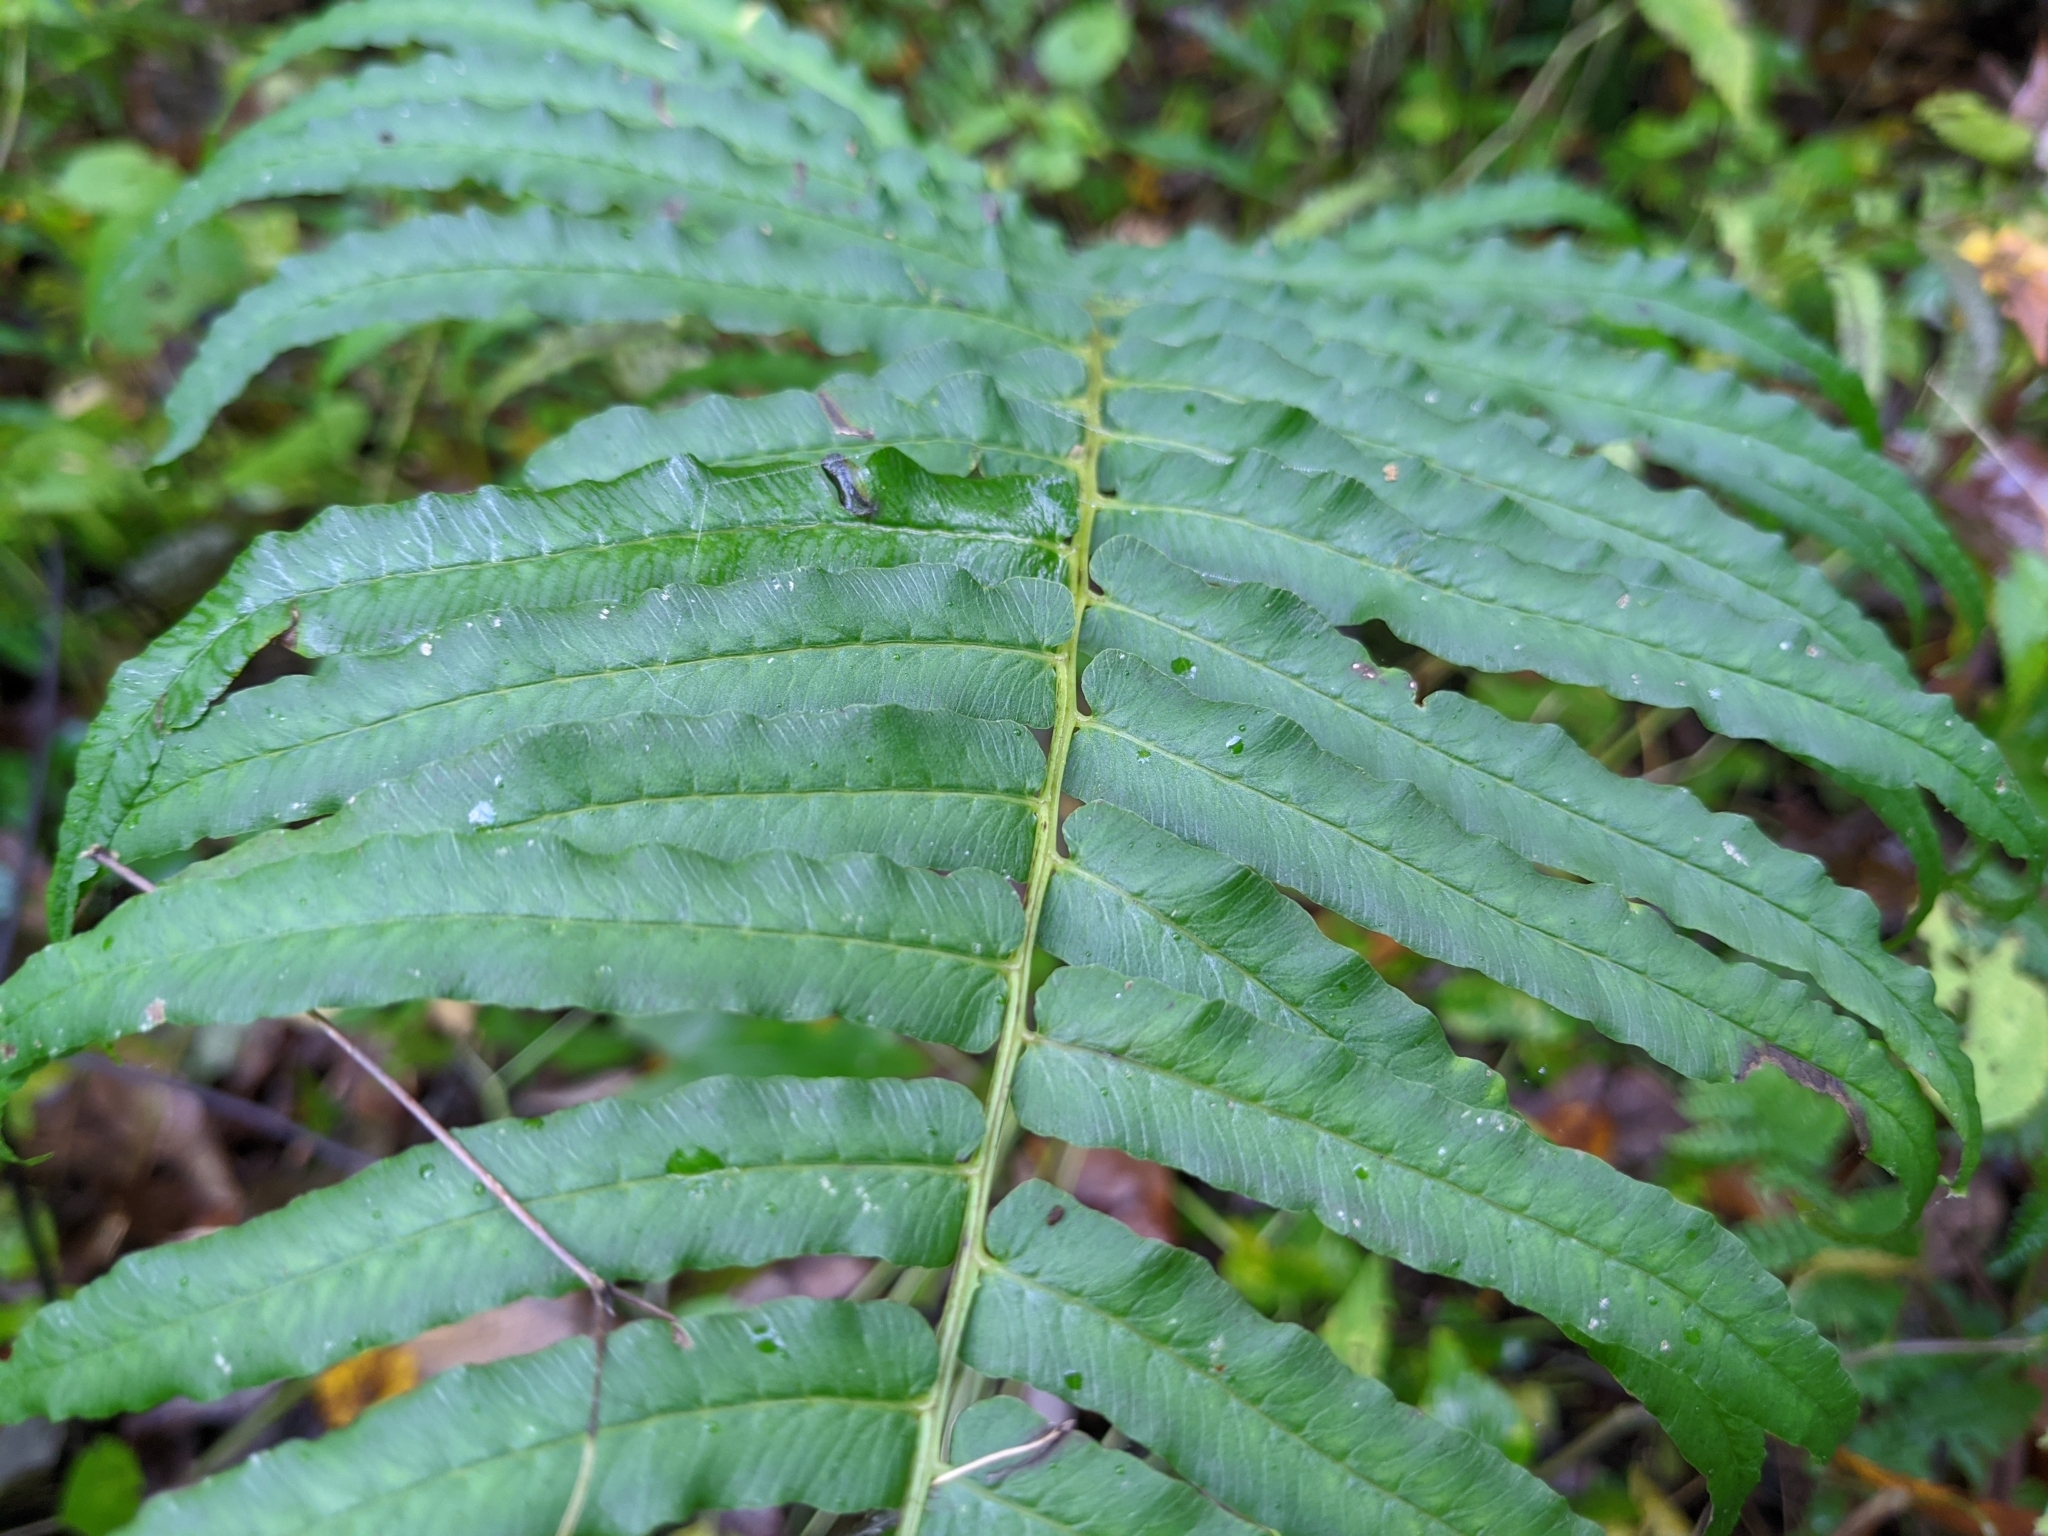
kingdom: Plantae
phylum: Tracheophyta
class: Polypodiopsida
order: Polypodiales
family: Diplaziopsidaceae
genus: Homalosorus
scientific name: Homalosorus pycnocarpos
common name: Glade fern
